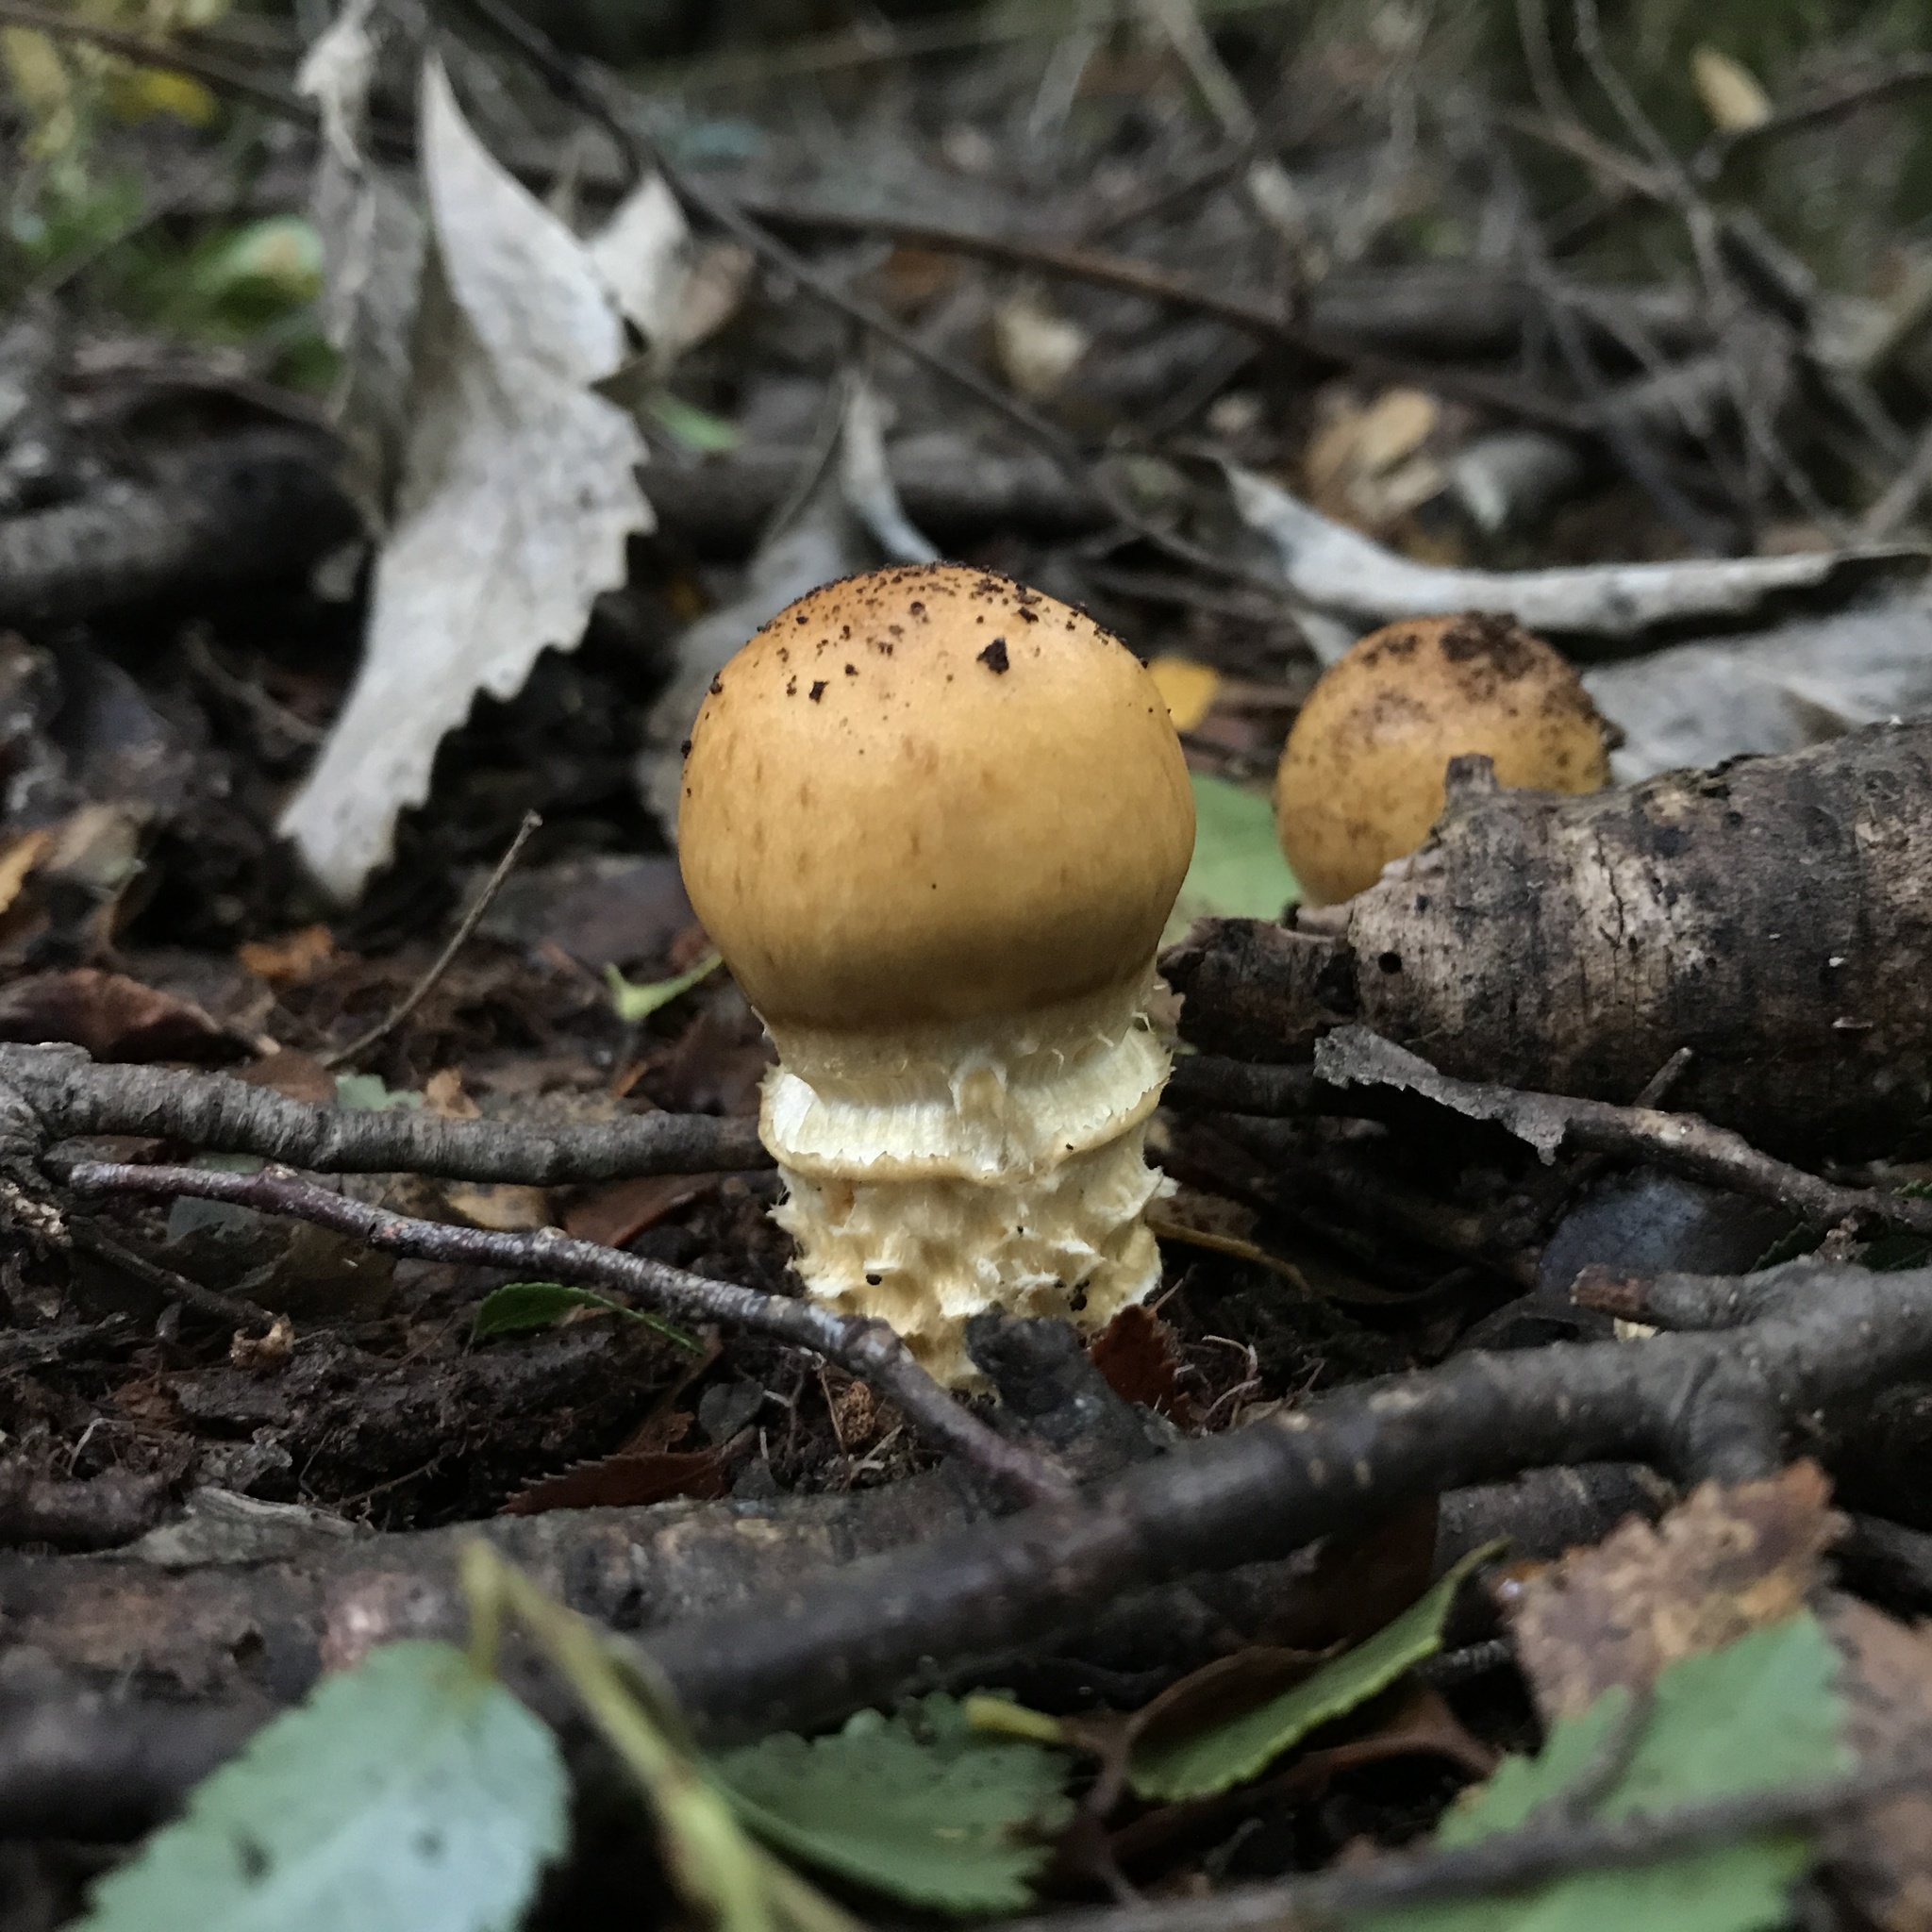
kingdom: Fungi
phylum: Basidiomycota
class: Agaricomycetes
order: Agaricales
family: Cortinariaceae
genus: Thaxterogaster
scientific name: Thaxterogaster pseudotriumphans
